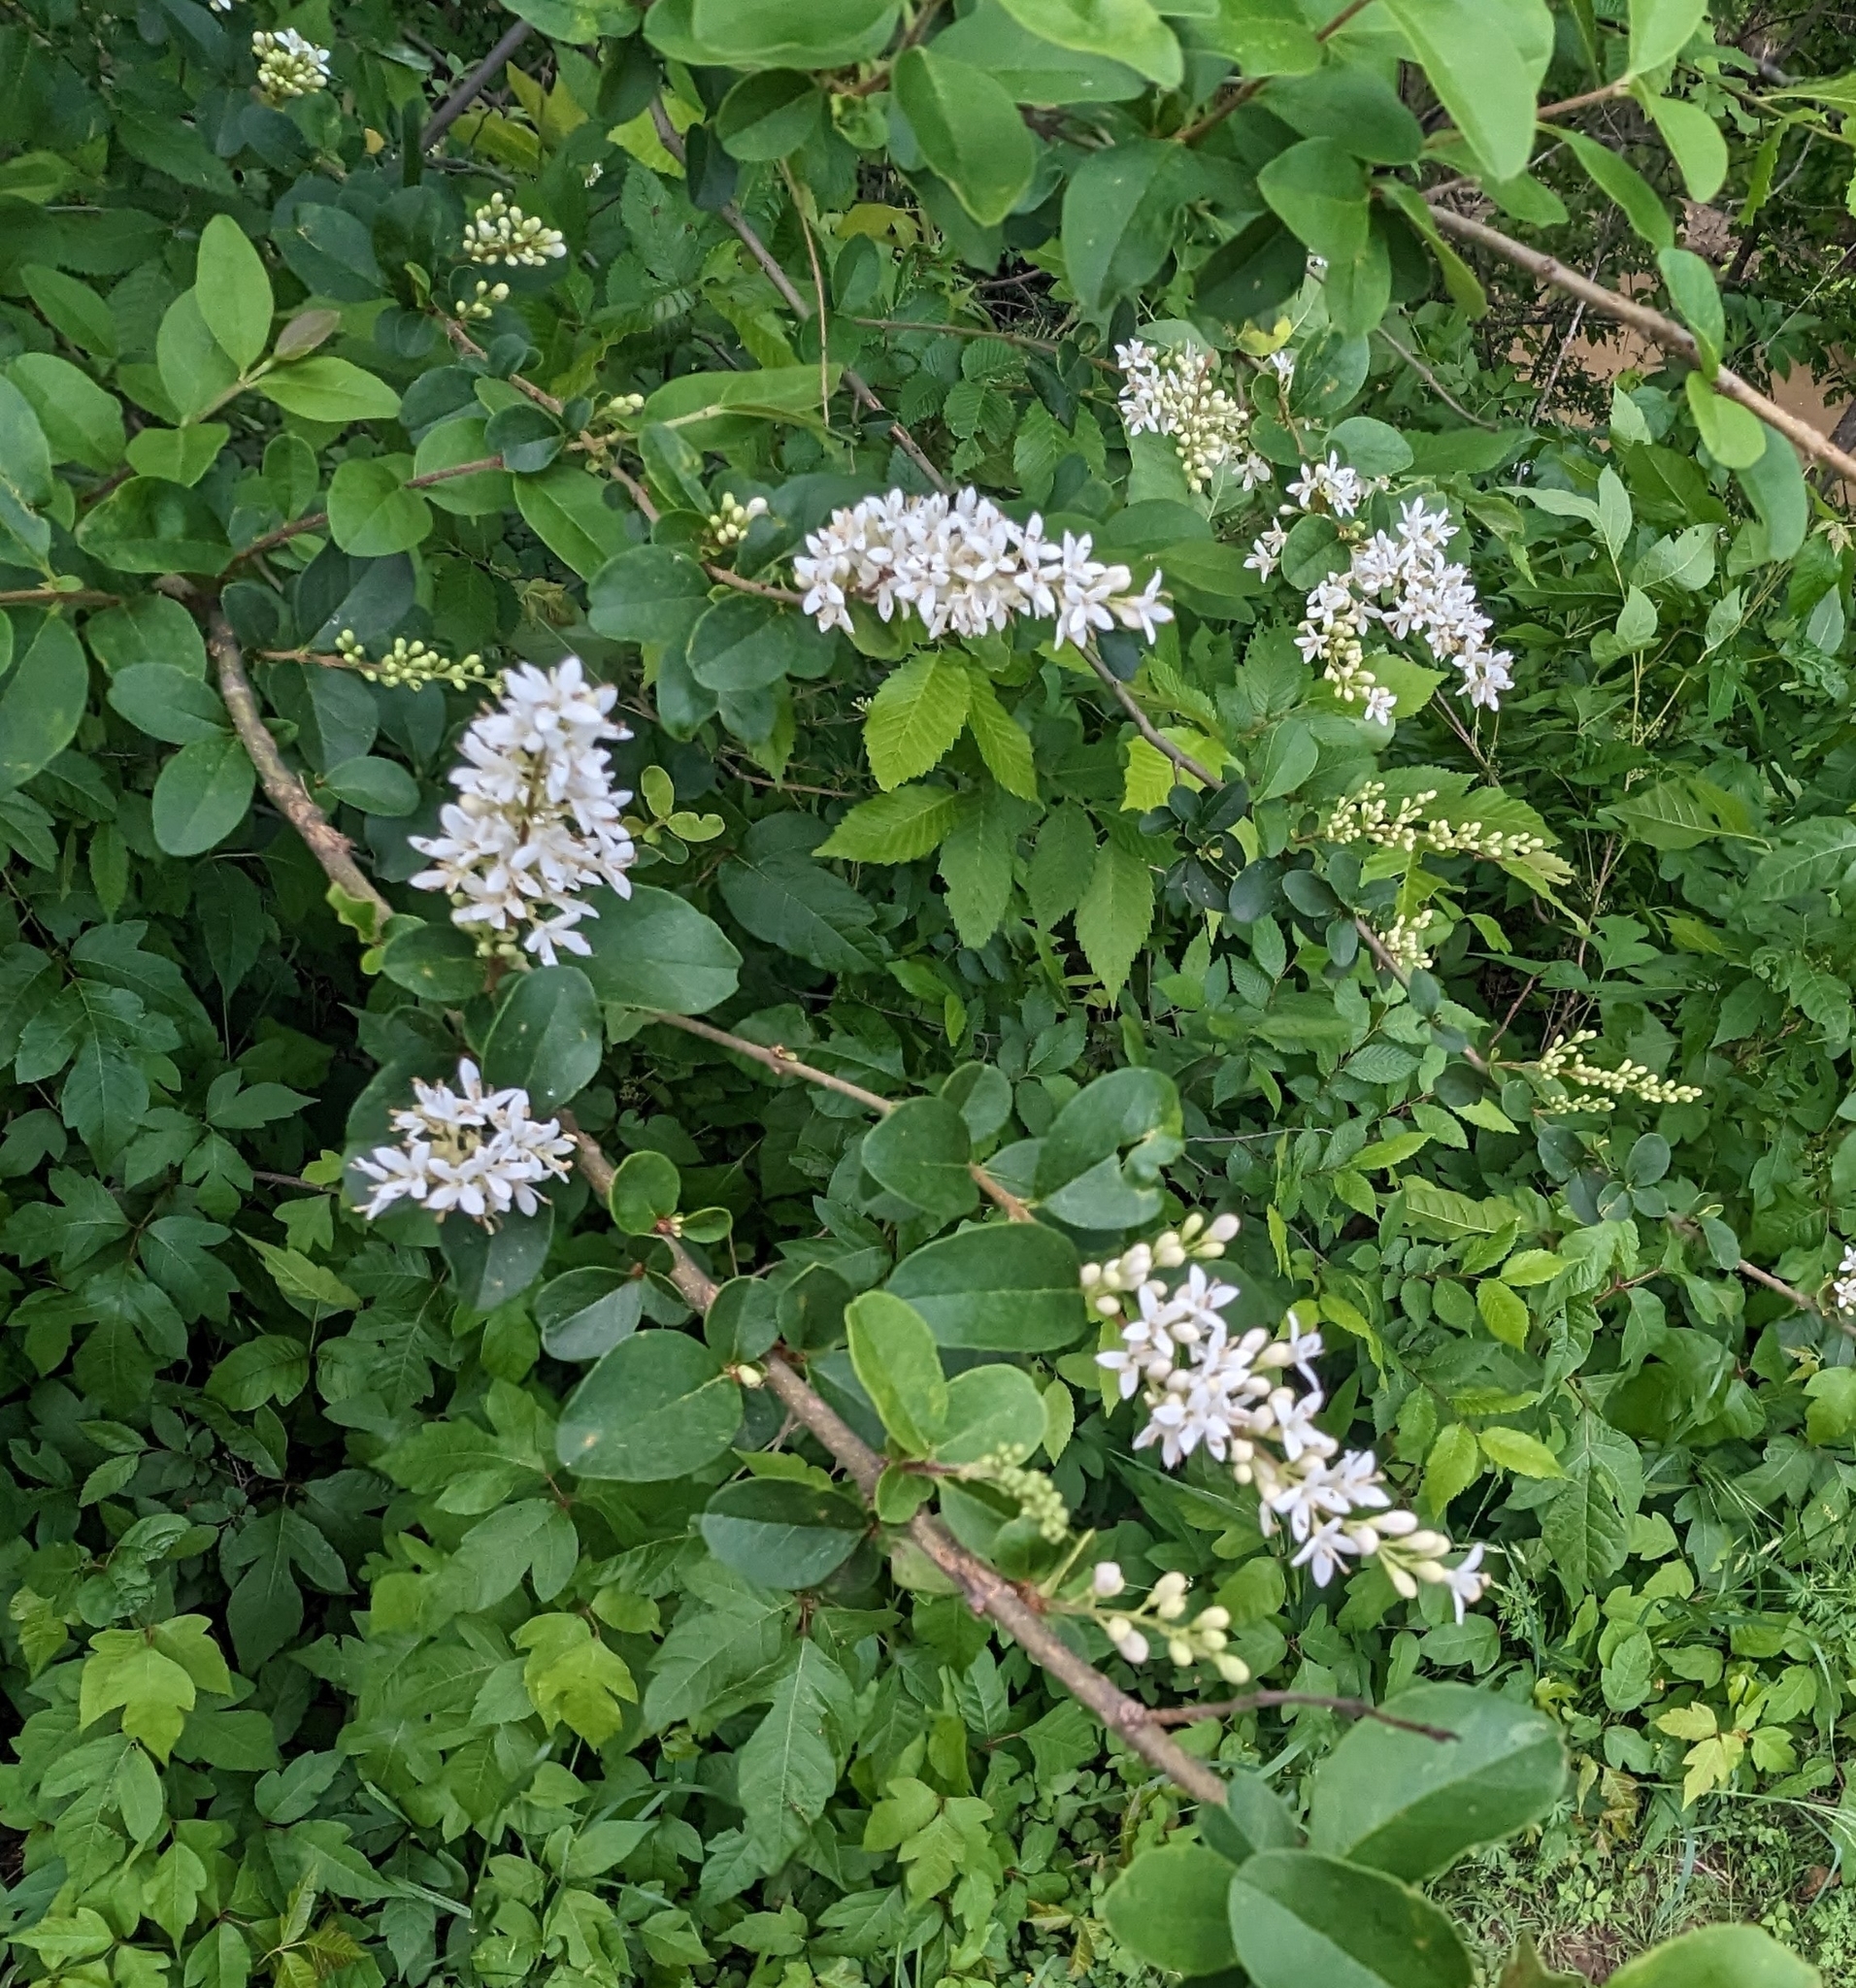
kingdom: Plantae
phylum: Tracheophyta
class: Magnoliopsida
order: Lamiales
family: Oleaceae
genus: Ligustrum
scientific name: Ligustrum sinense
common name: Chinese privet
